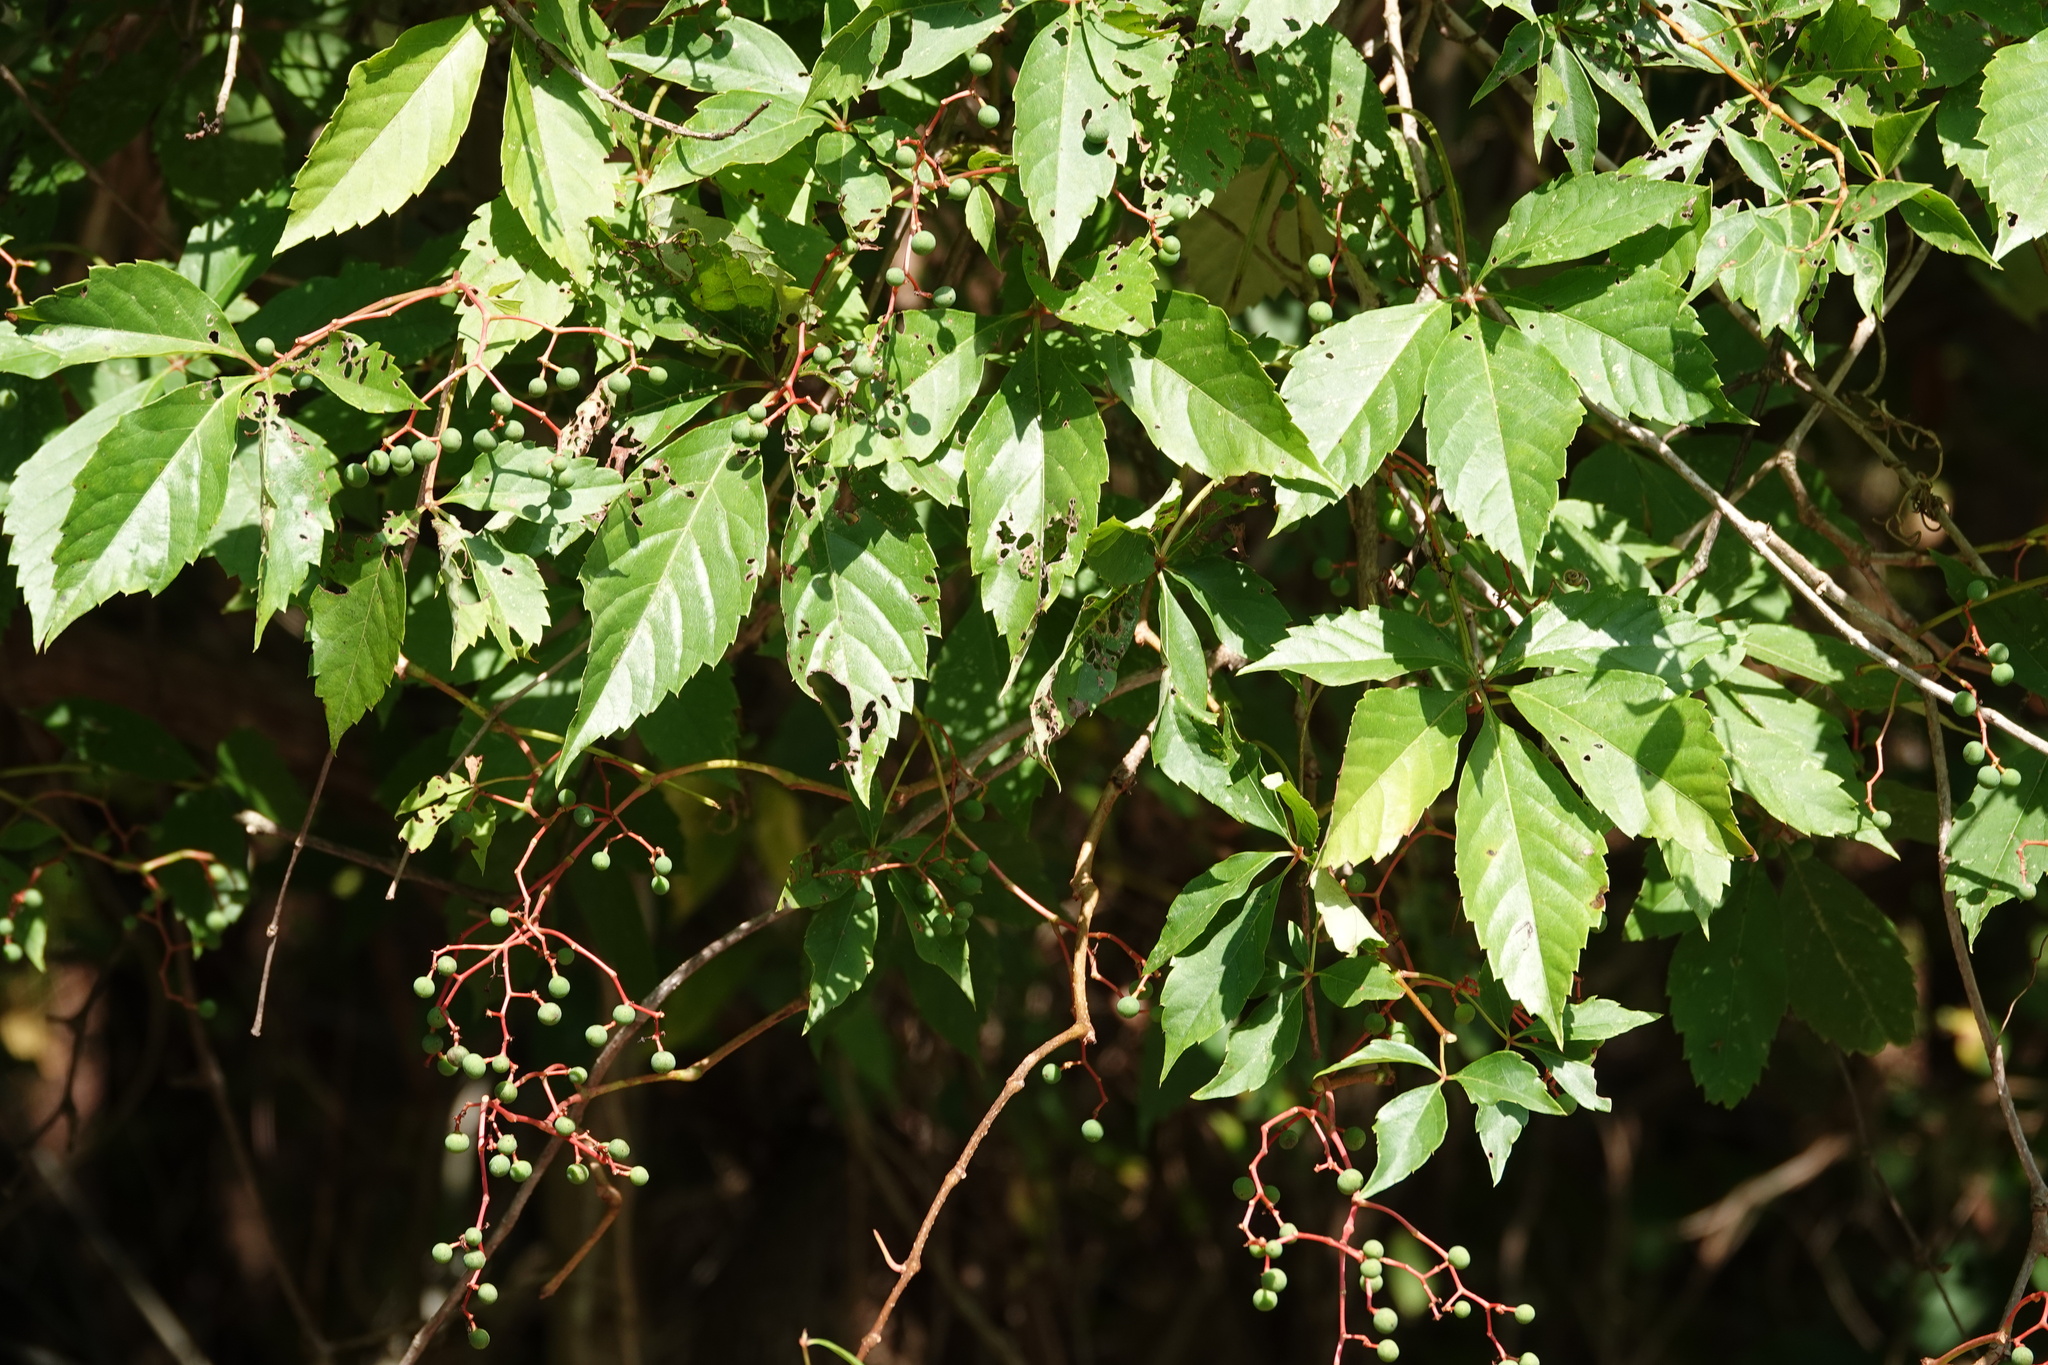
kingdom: Plantae
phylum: Tracheophyta
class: Magnoliopsida
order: Vitales
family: Vitaceae
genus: Parthenocissus
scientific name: Parthenocissus quinquefolia
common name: Virginia-creeper
